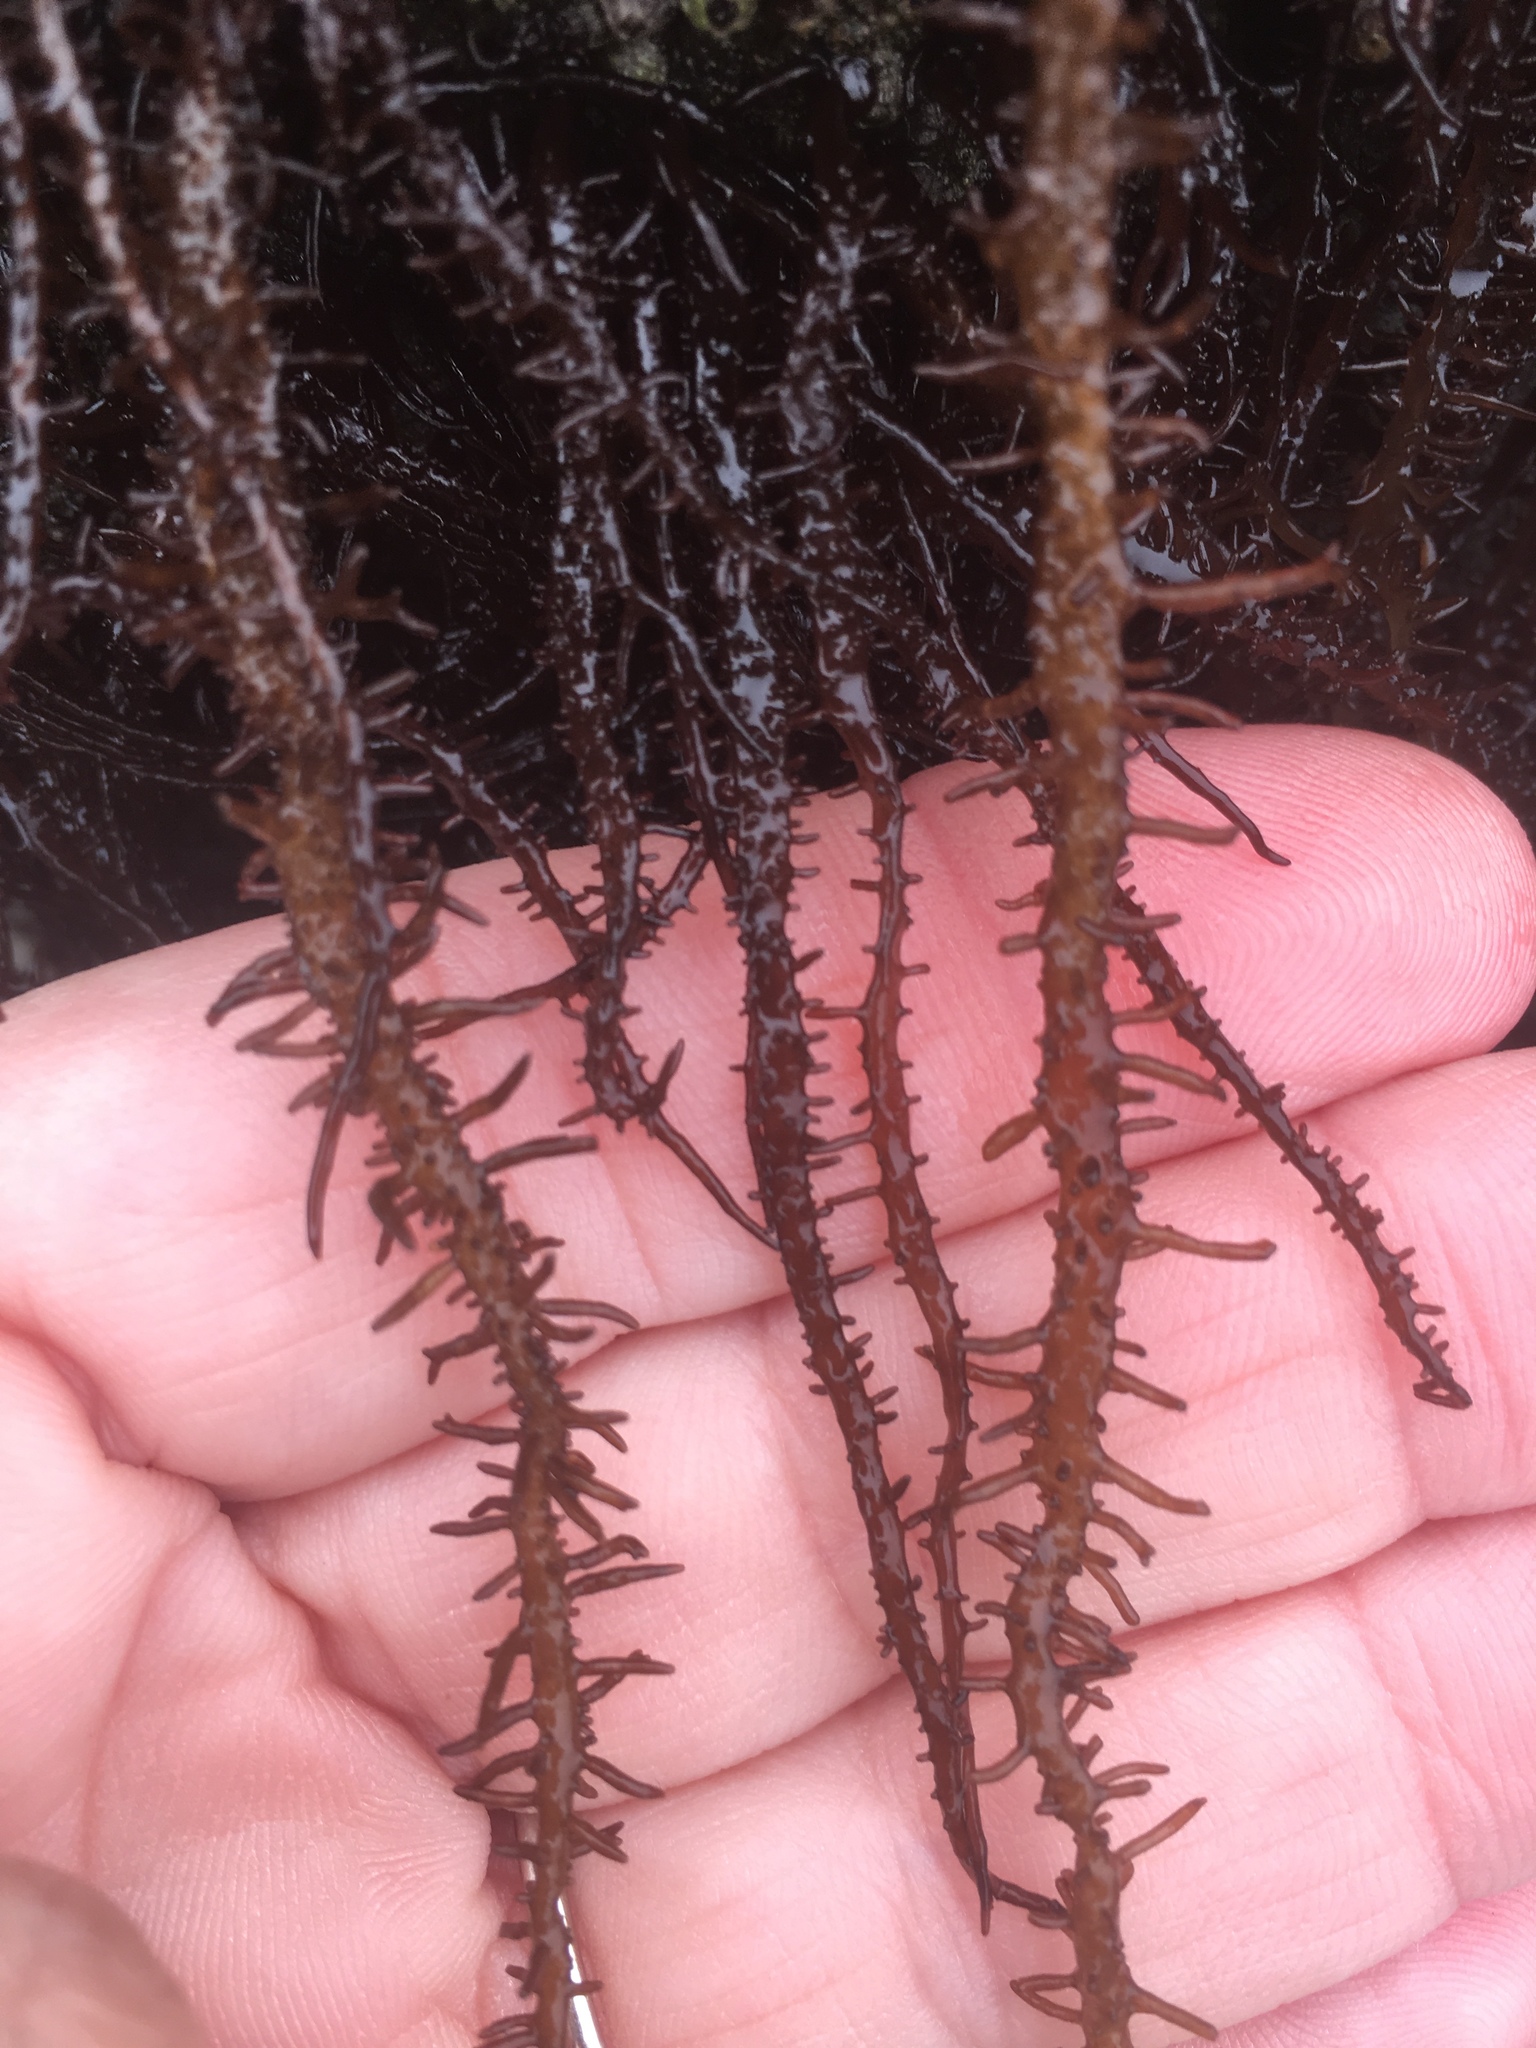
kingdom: Plantae
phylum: Rhodophyta
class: Florideophyceae
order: Nemaliales
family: Liagoraceae
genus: Cumagloia
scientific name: Cumagloia andersonii
